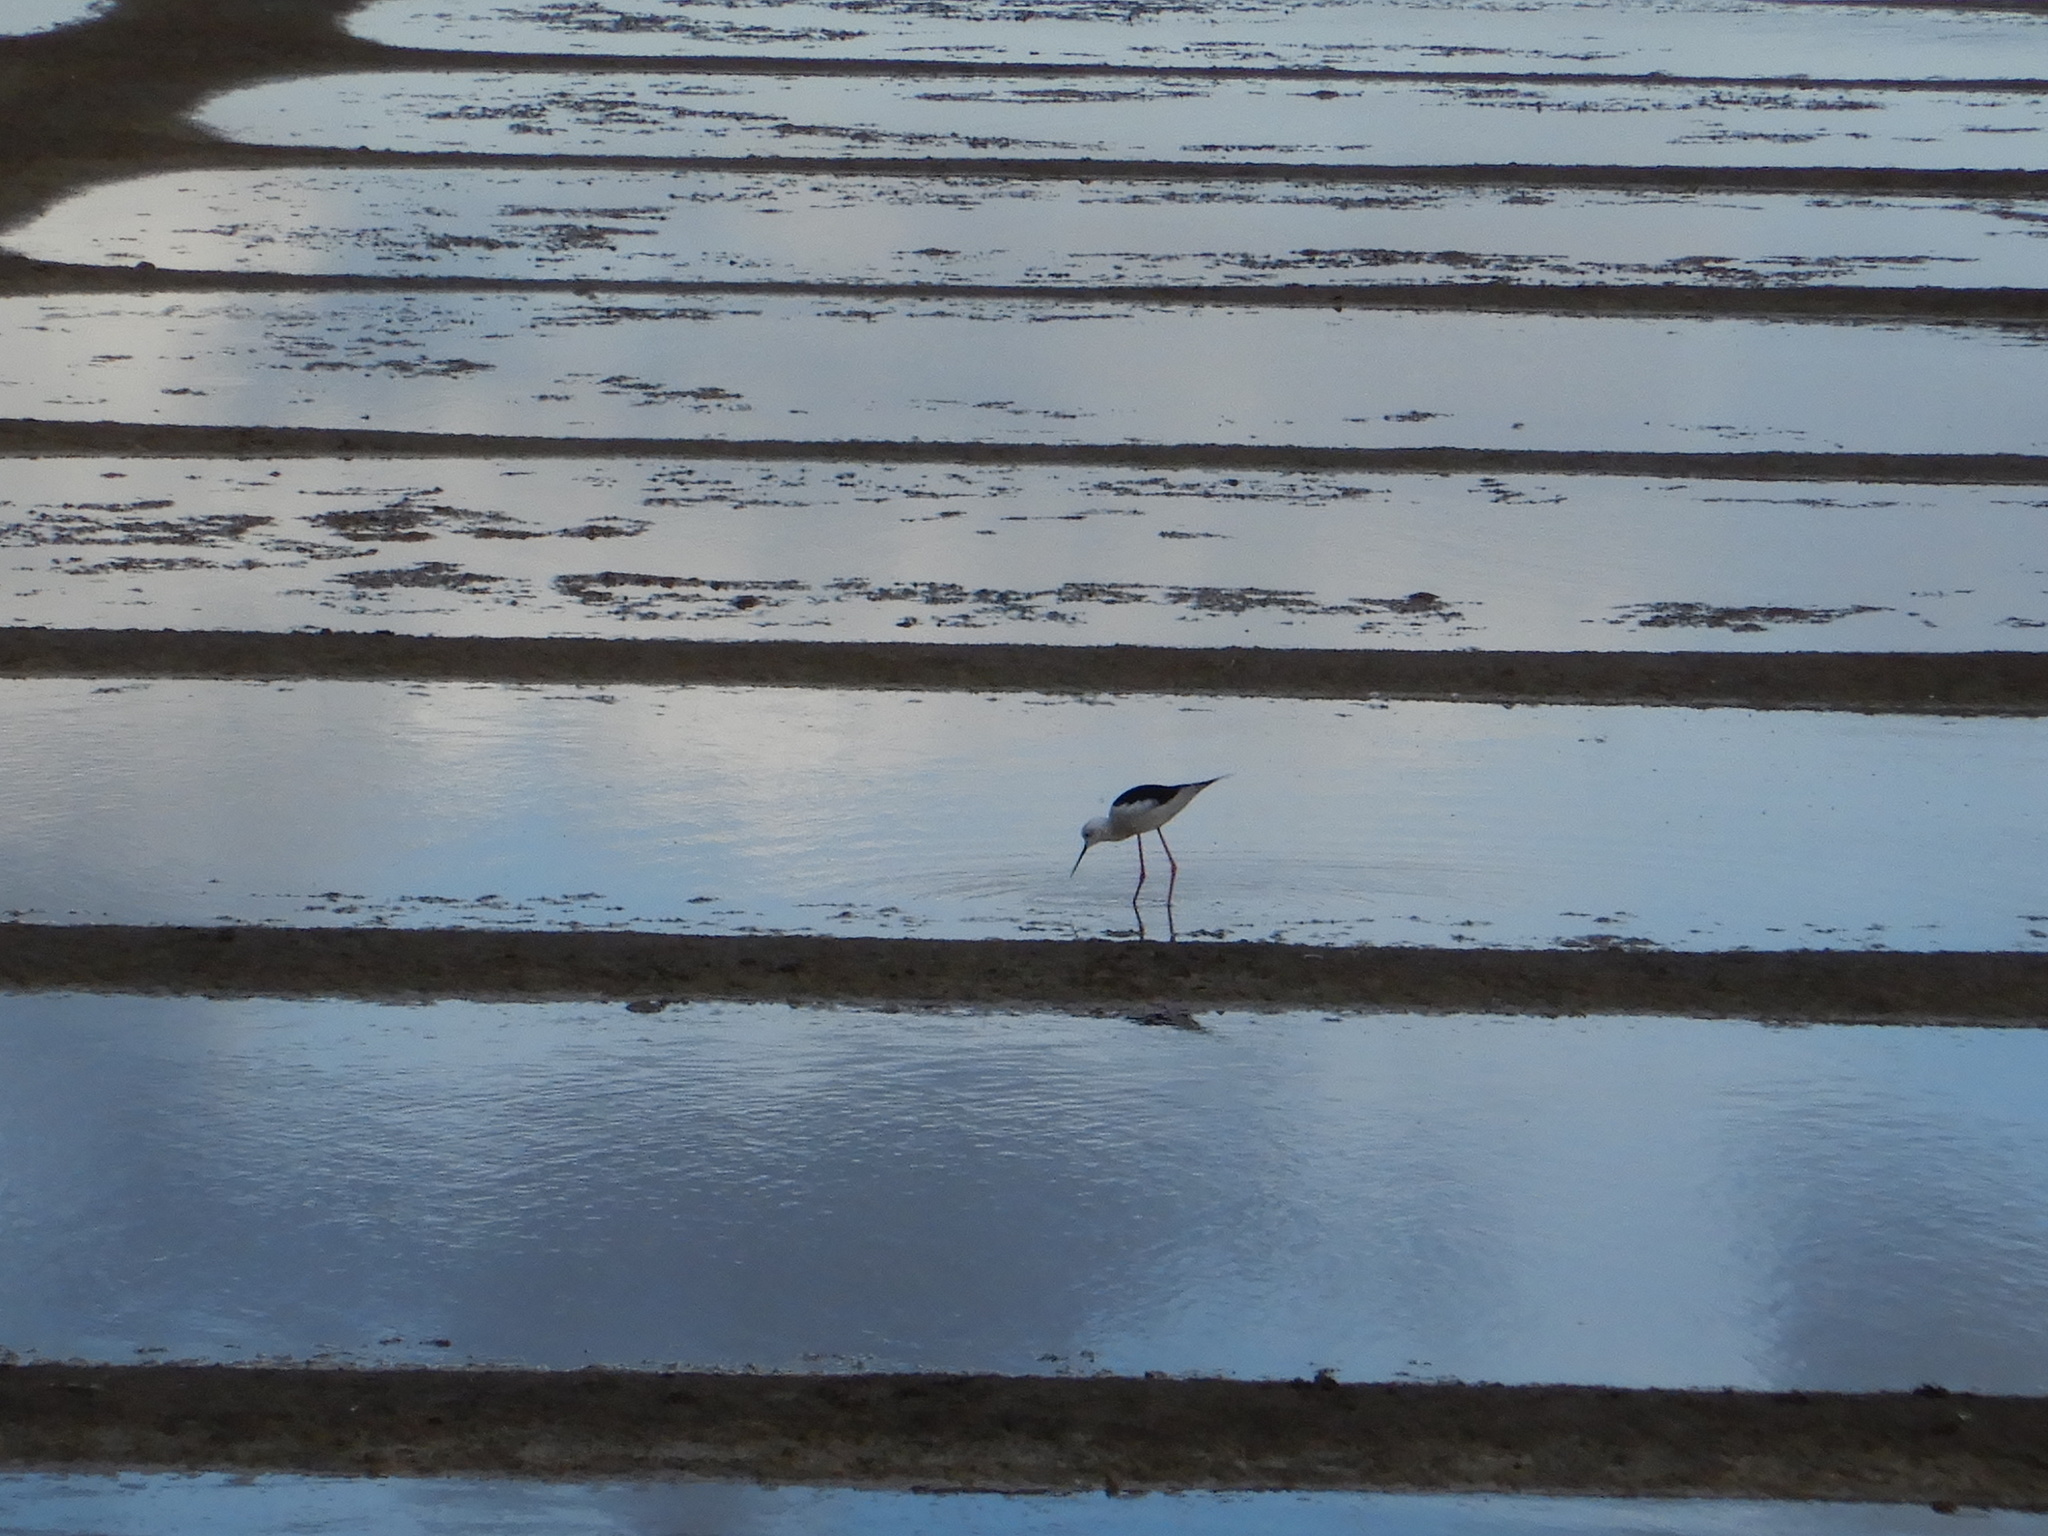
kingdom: Animalia
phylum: Chordata
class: Aves
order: Charadriiformes
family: Recurvirostridae
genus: Himantopus
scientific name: Himantopus himantopus
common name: Black-winged stilt
